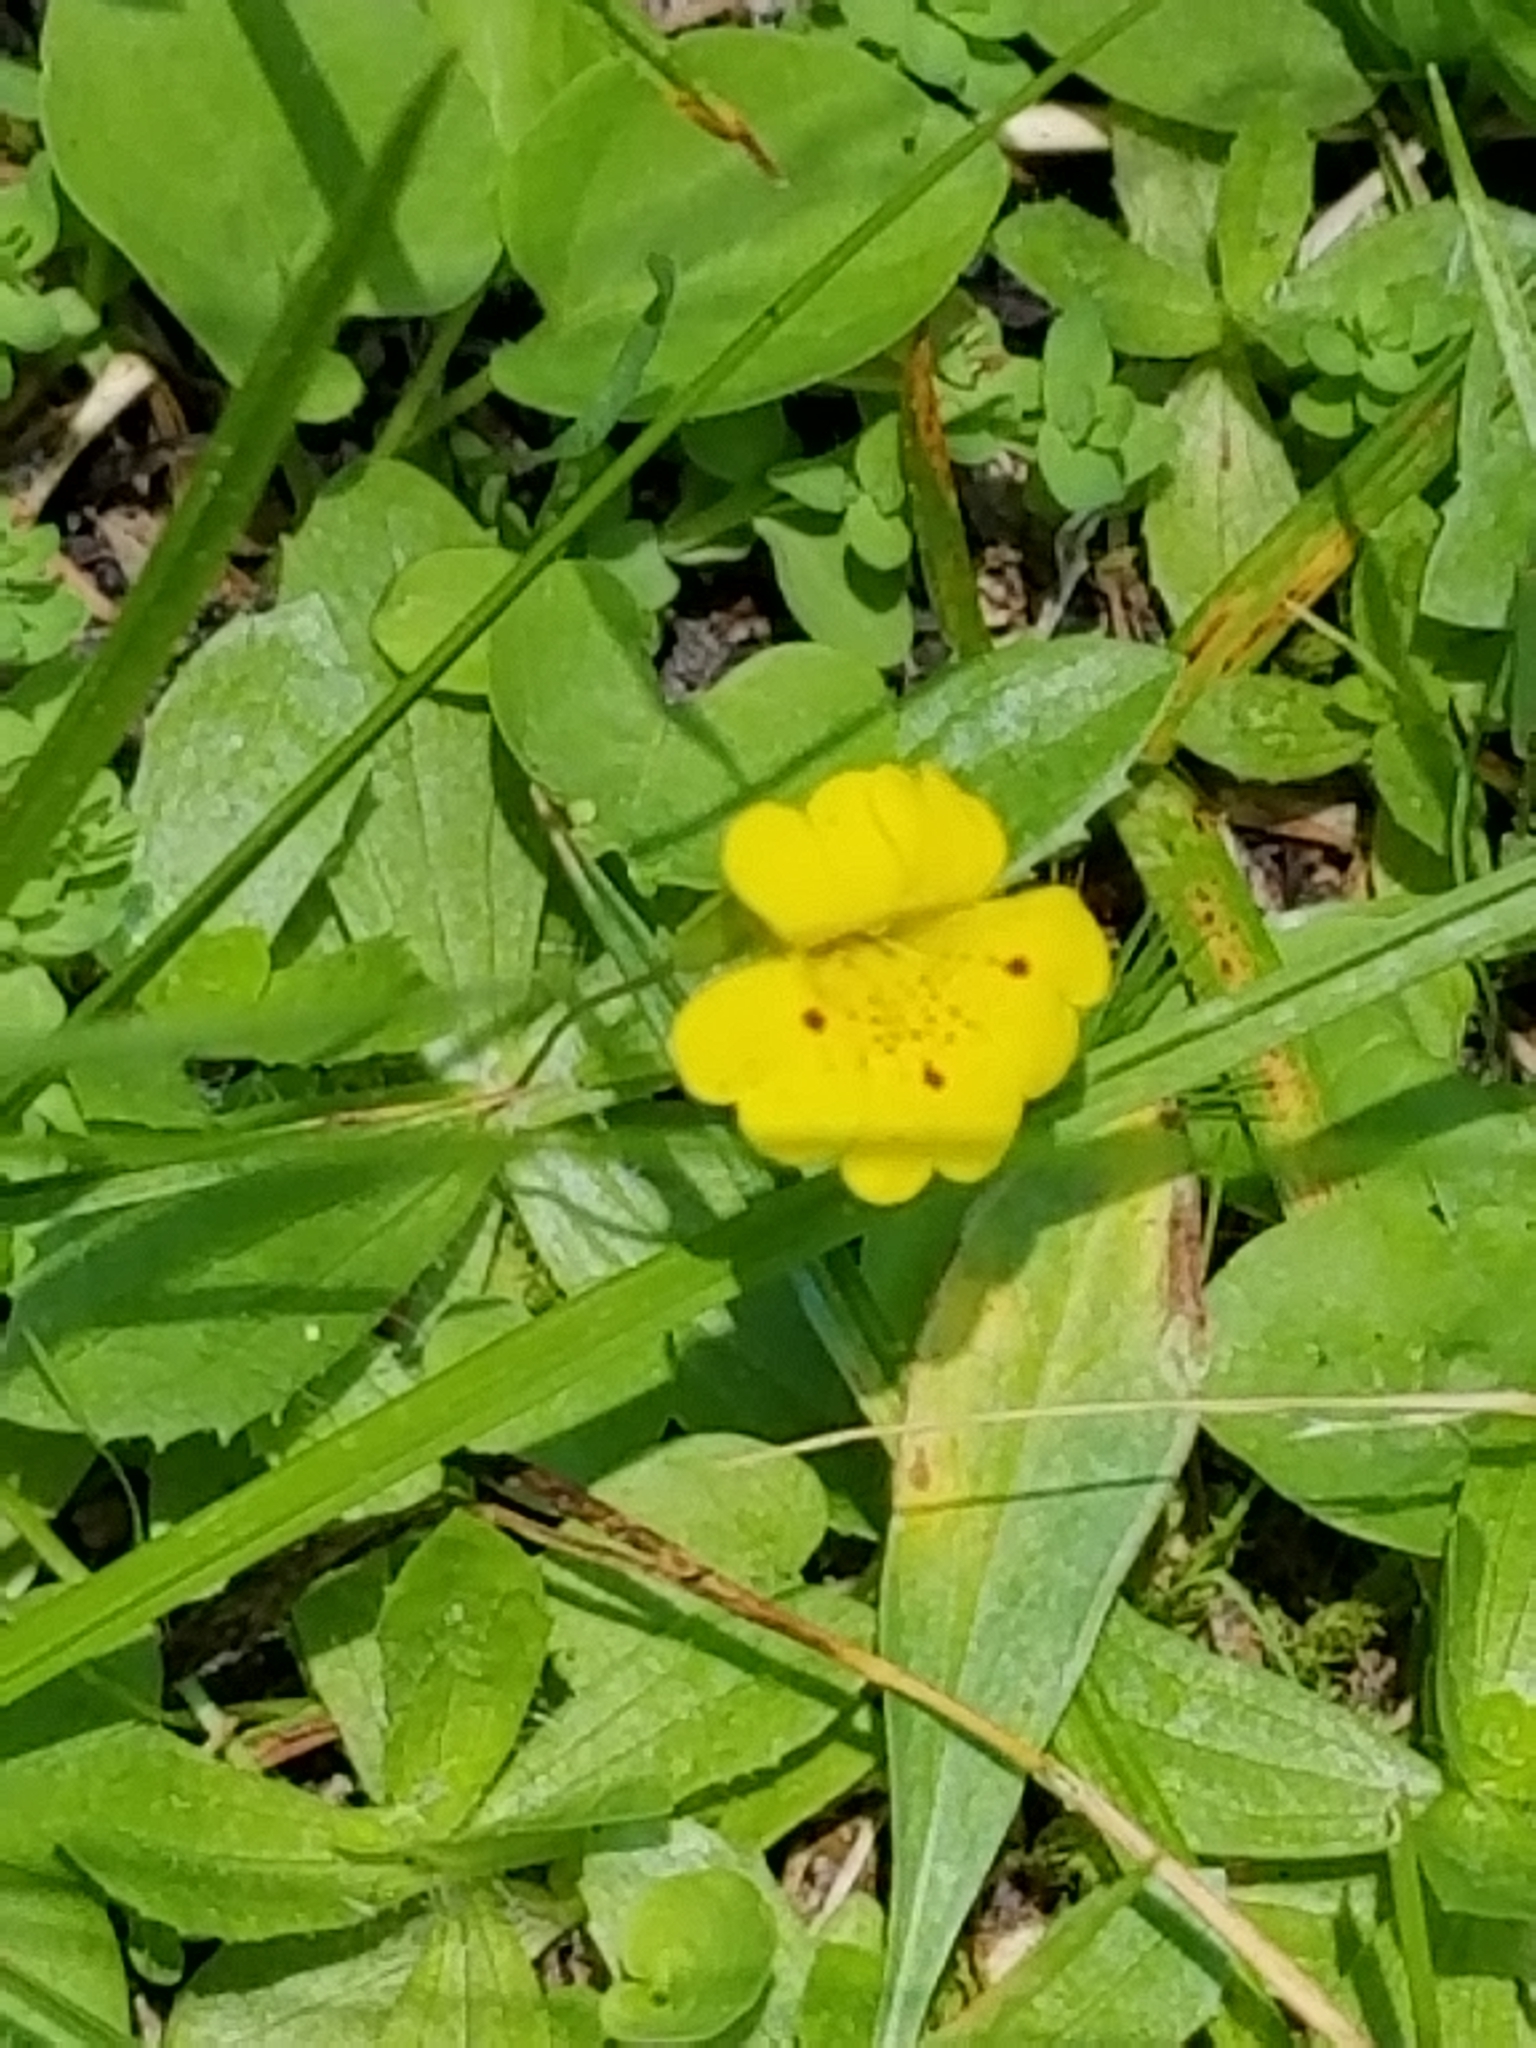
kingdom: Plantae
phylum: Tracheophyta
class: Magnoliopsida
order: Lamiales
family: Phrymaceae
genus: Erythranthe
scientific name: Erythranthe primuloides
